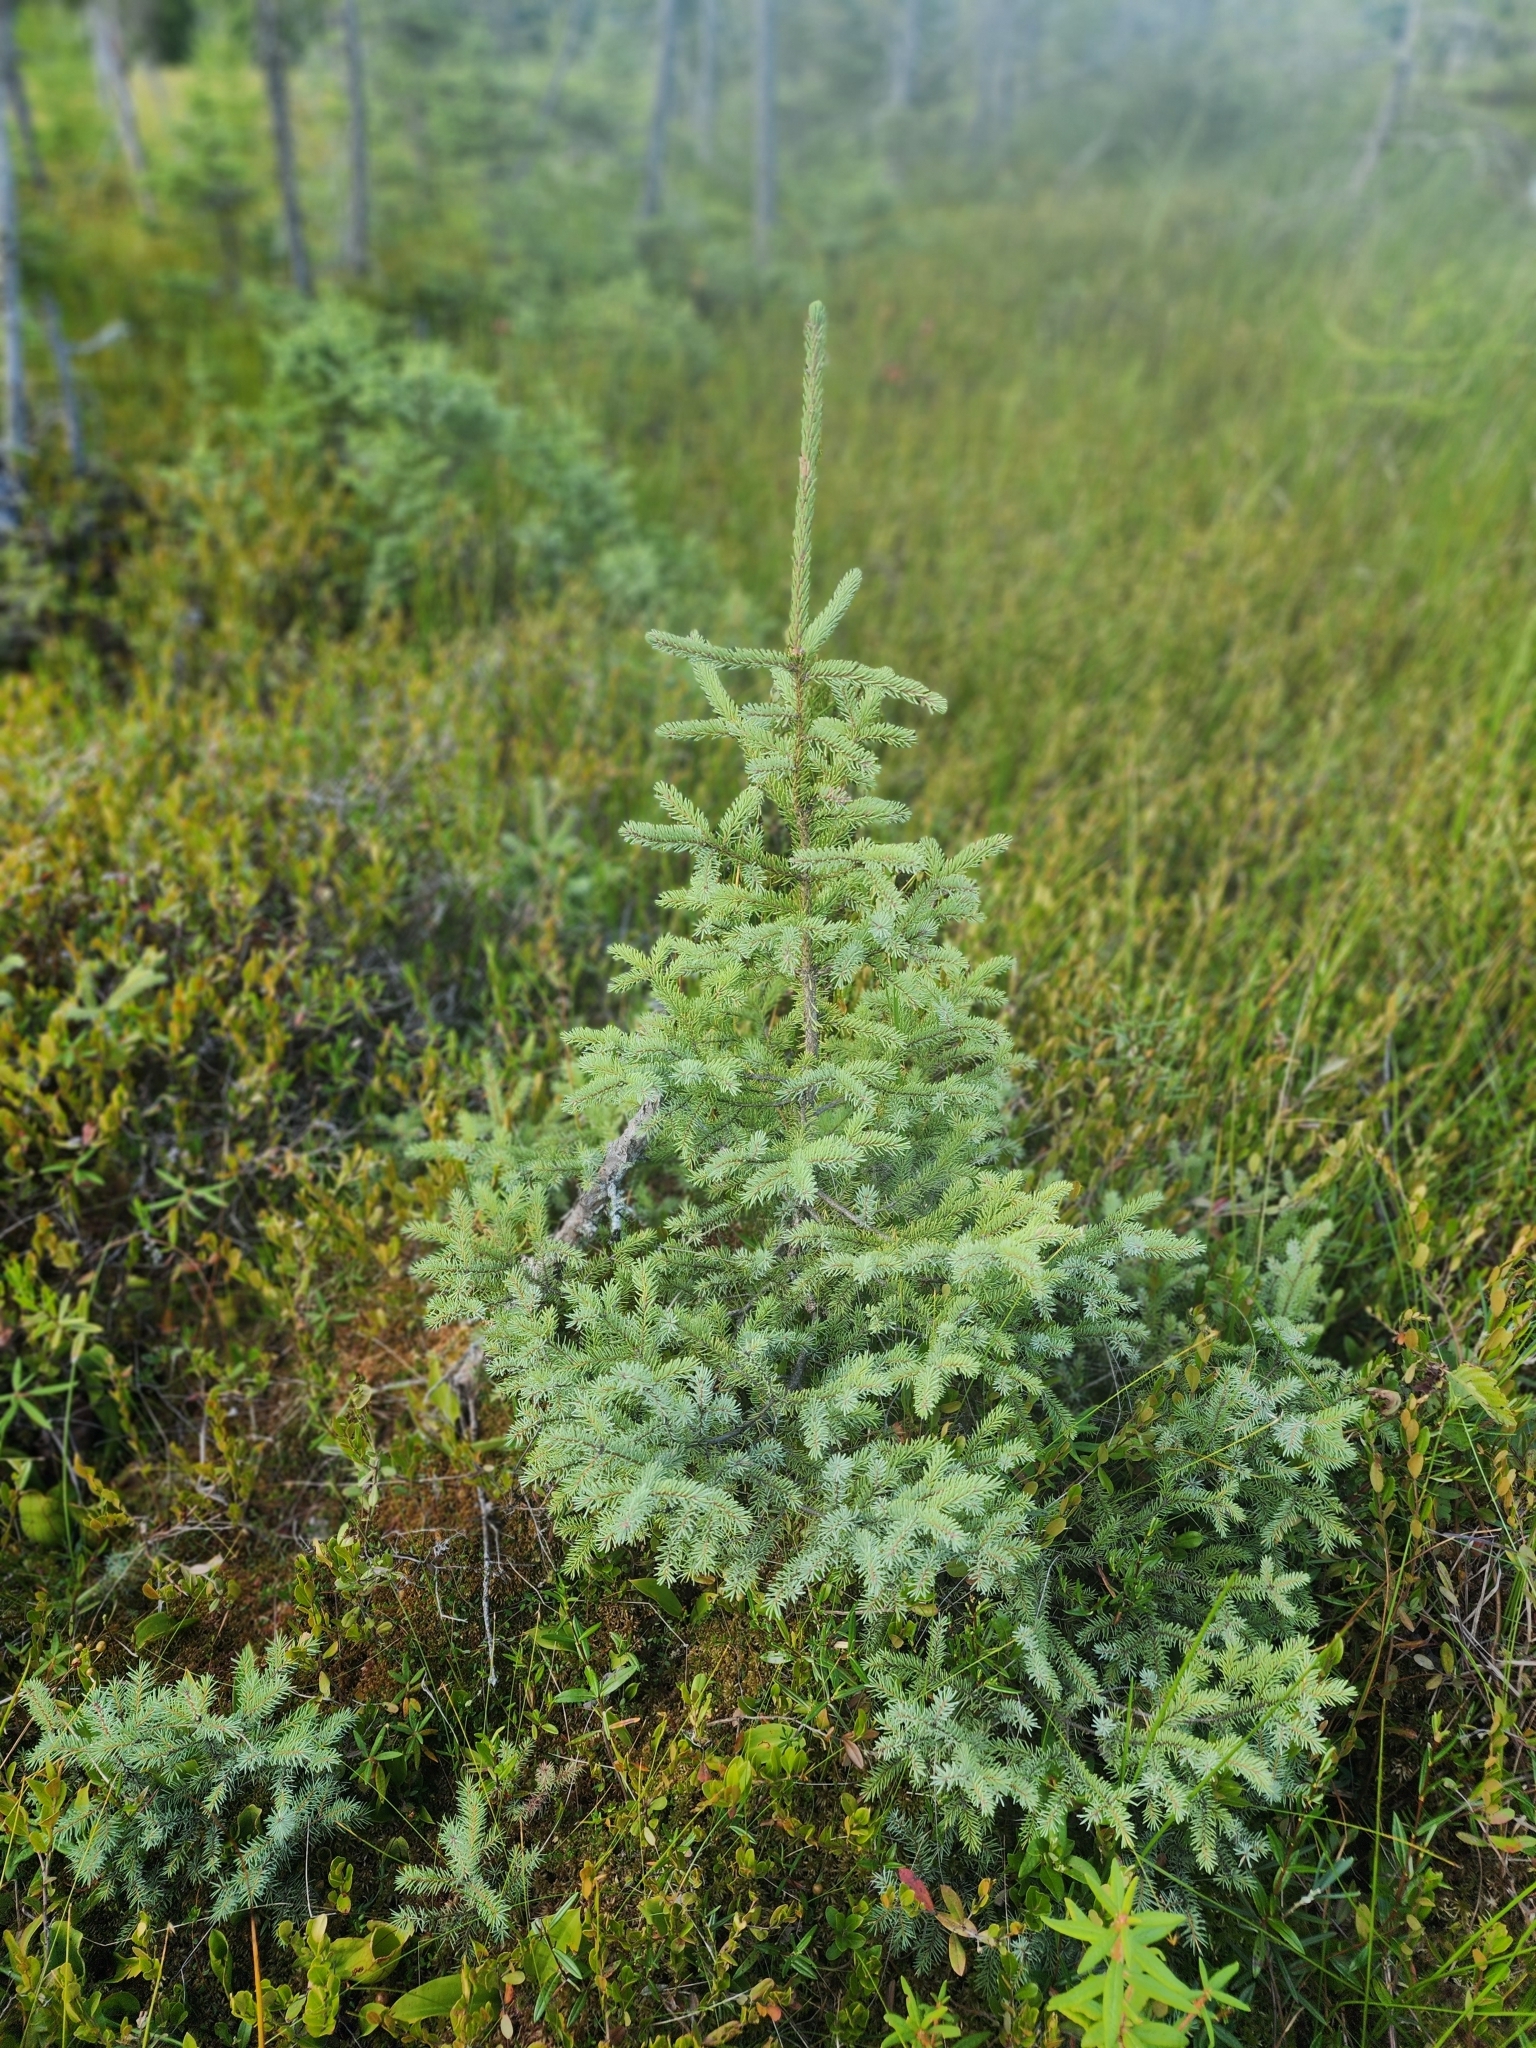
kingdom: Plantae
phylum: Tracheophyta
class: Pinopsida
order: Pinales
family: Pinaceae
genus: Picea
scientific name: Picea mariana
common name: Black spruce
